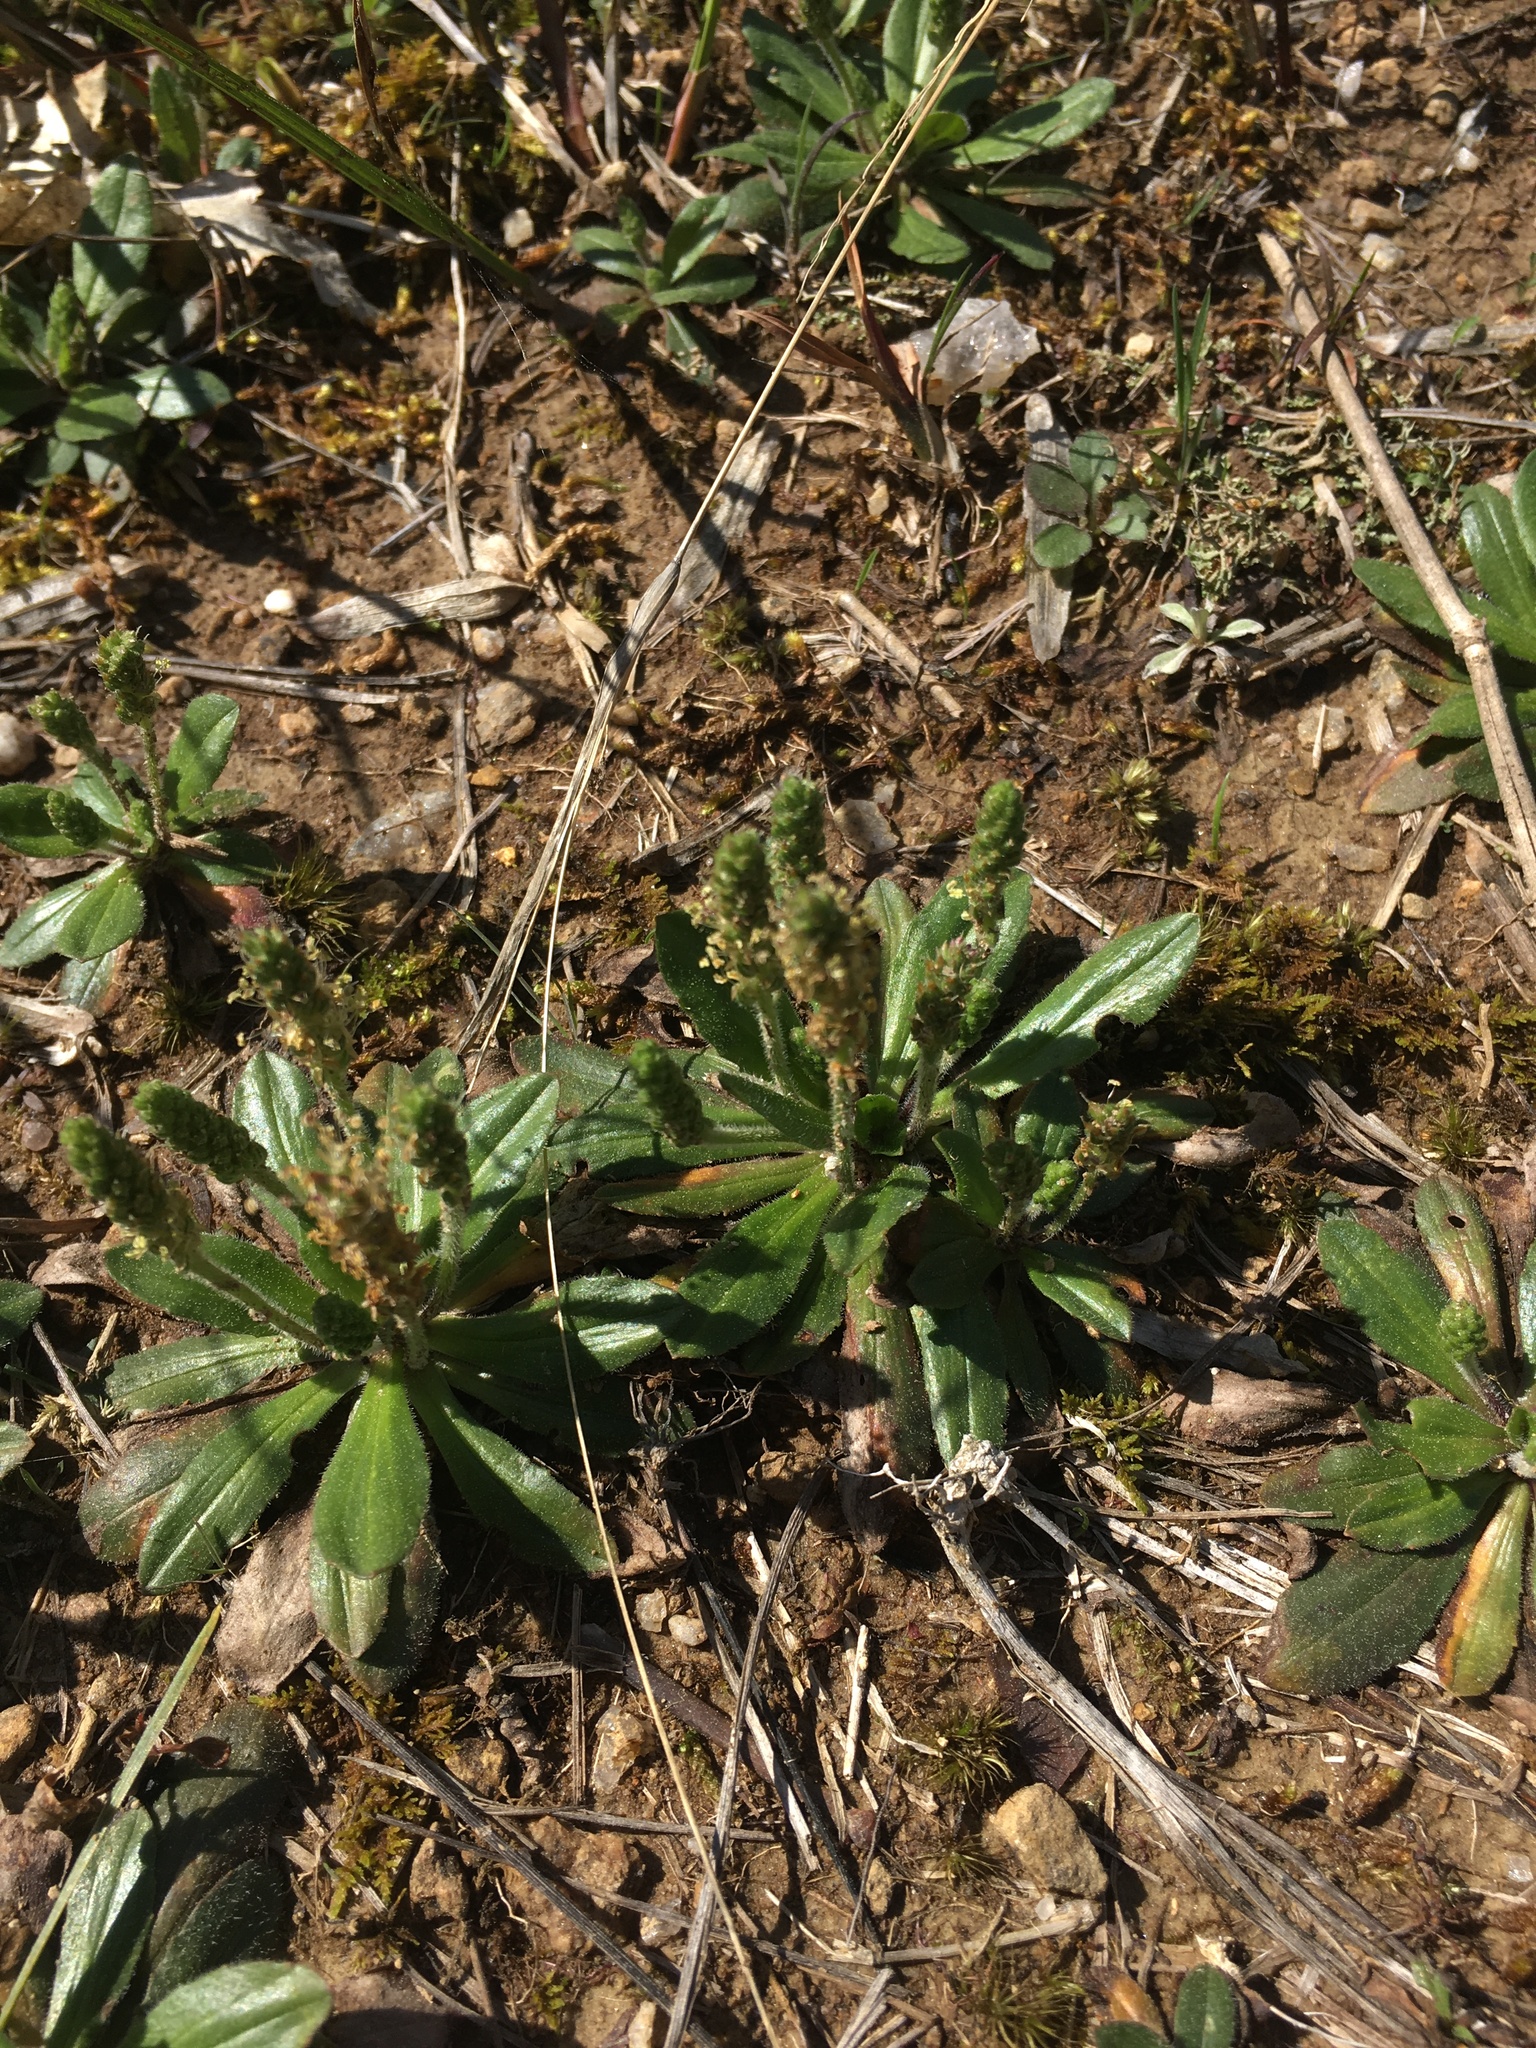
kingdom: Plantae
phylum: Tracheophyta
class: Magnoliopsida
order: Lamiales
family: Plantaginaceae
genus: Plantago
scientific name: Plantago virginica
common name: Hoary plantain
